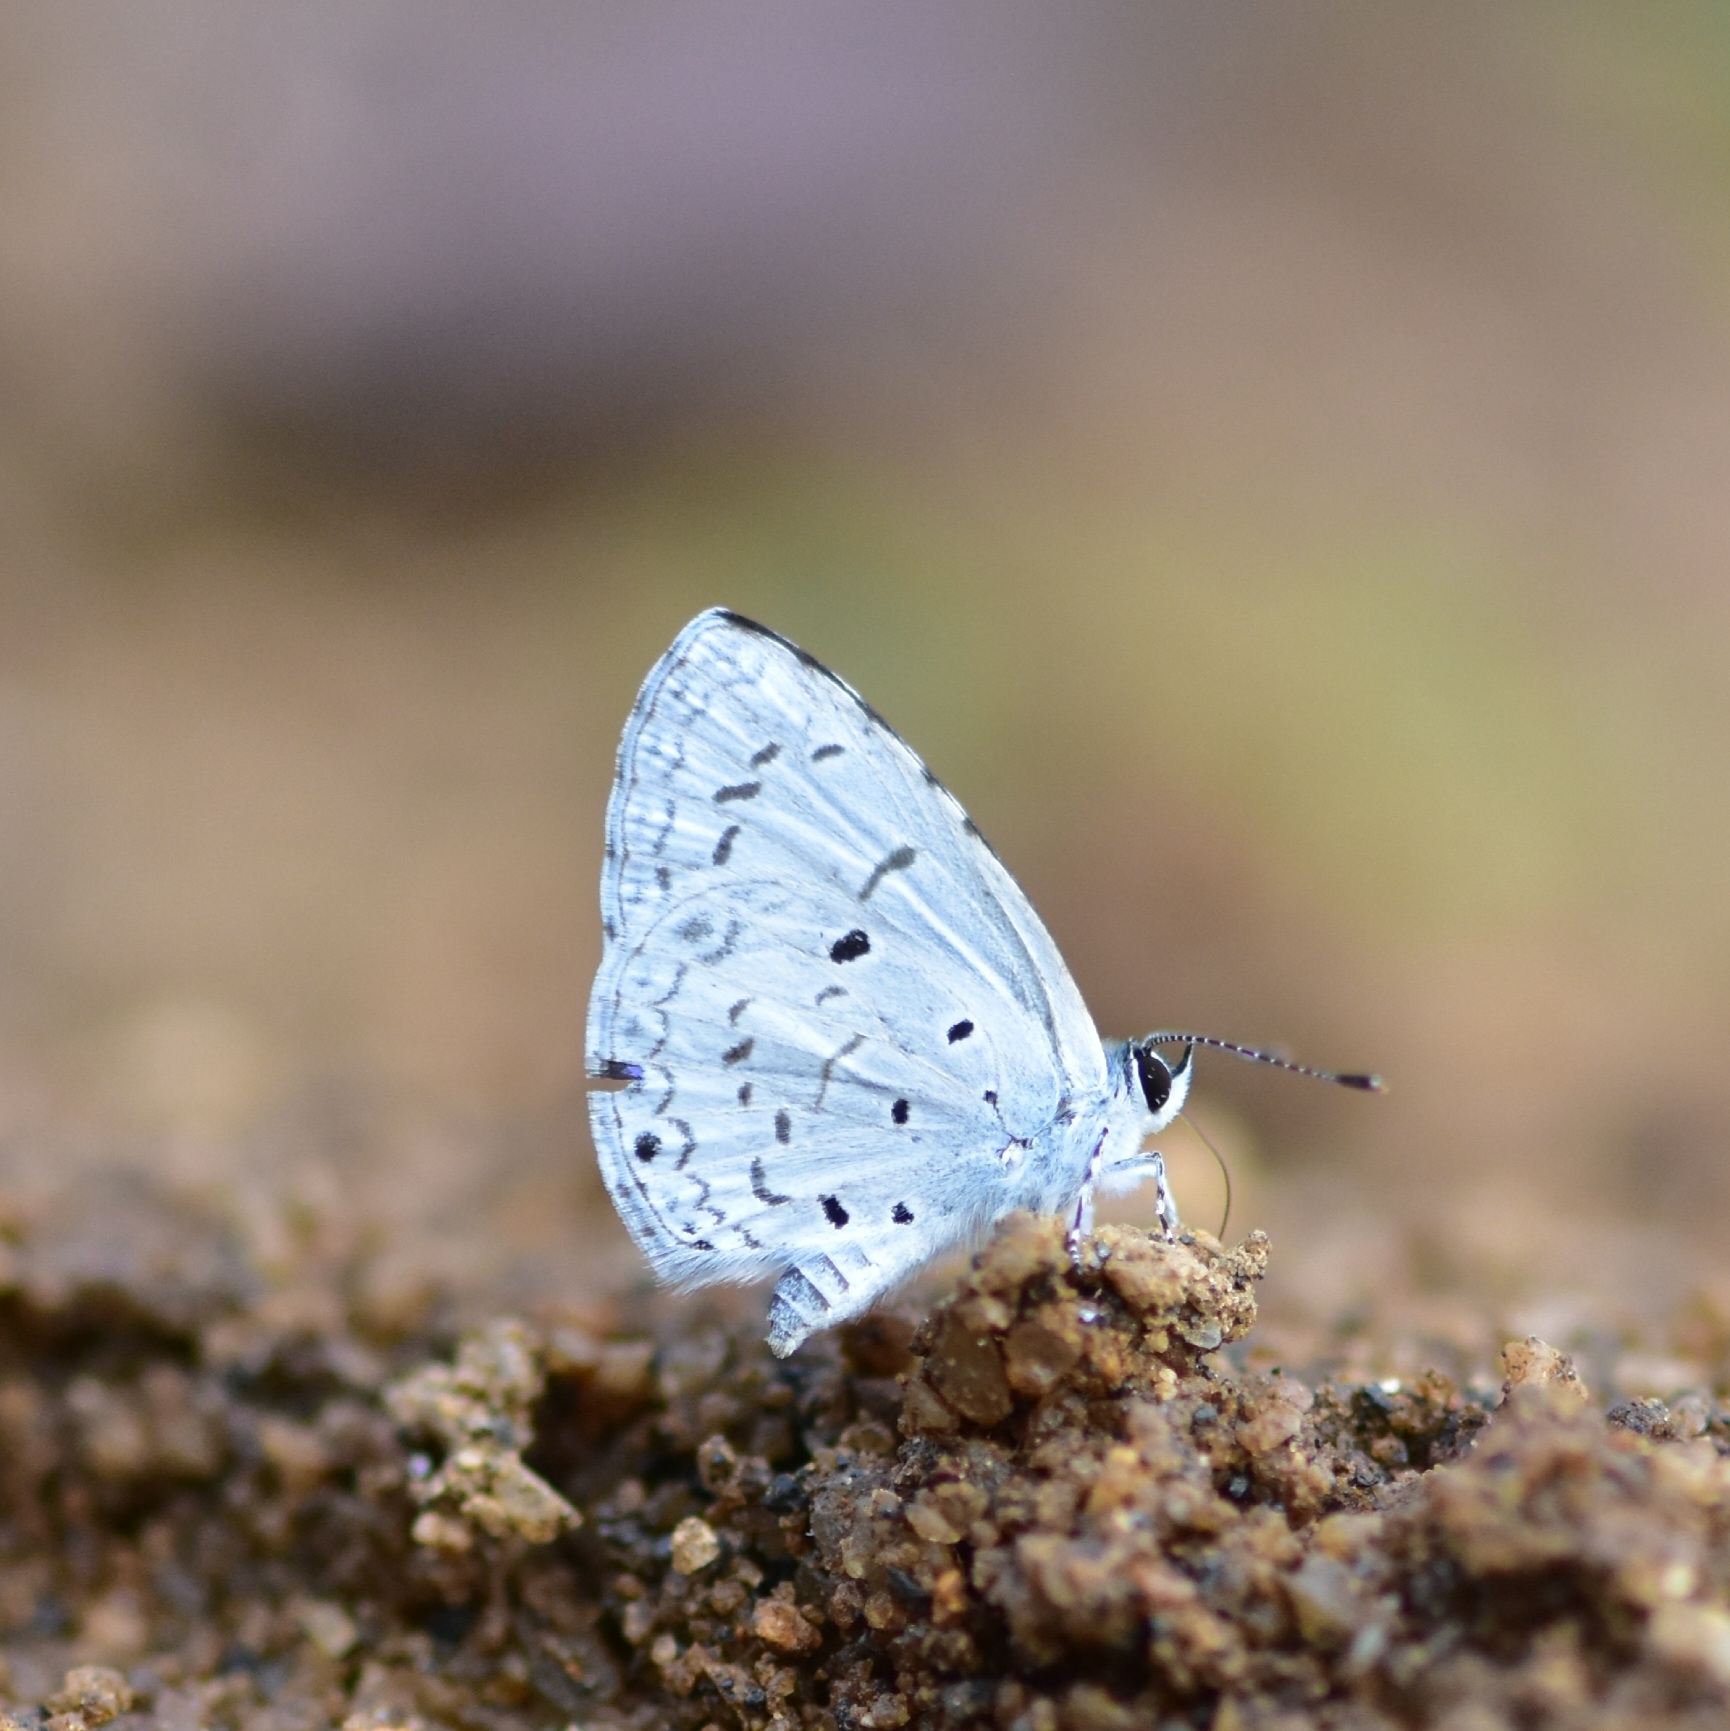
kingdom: Animalia
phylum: Arthropoda
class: Insecta
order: Lepidoptera
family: Lycaenidae
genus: Acytolepis
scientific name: Acytolepis puspa
